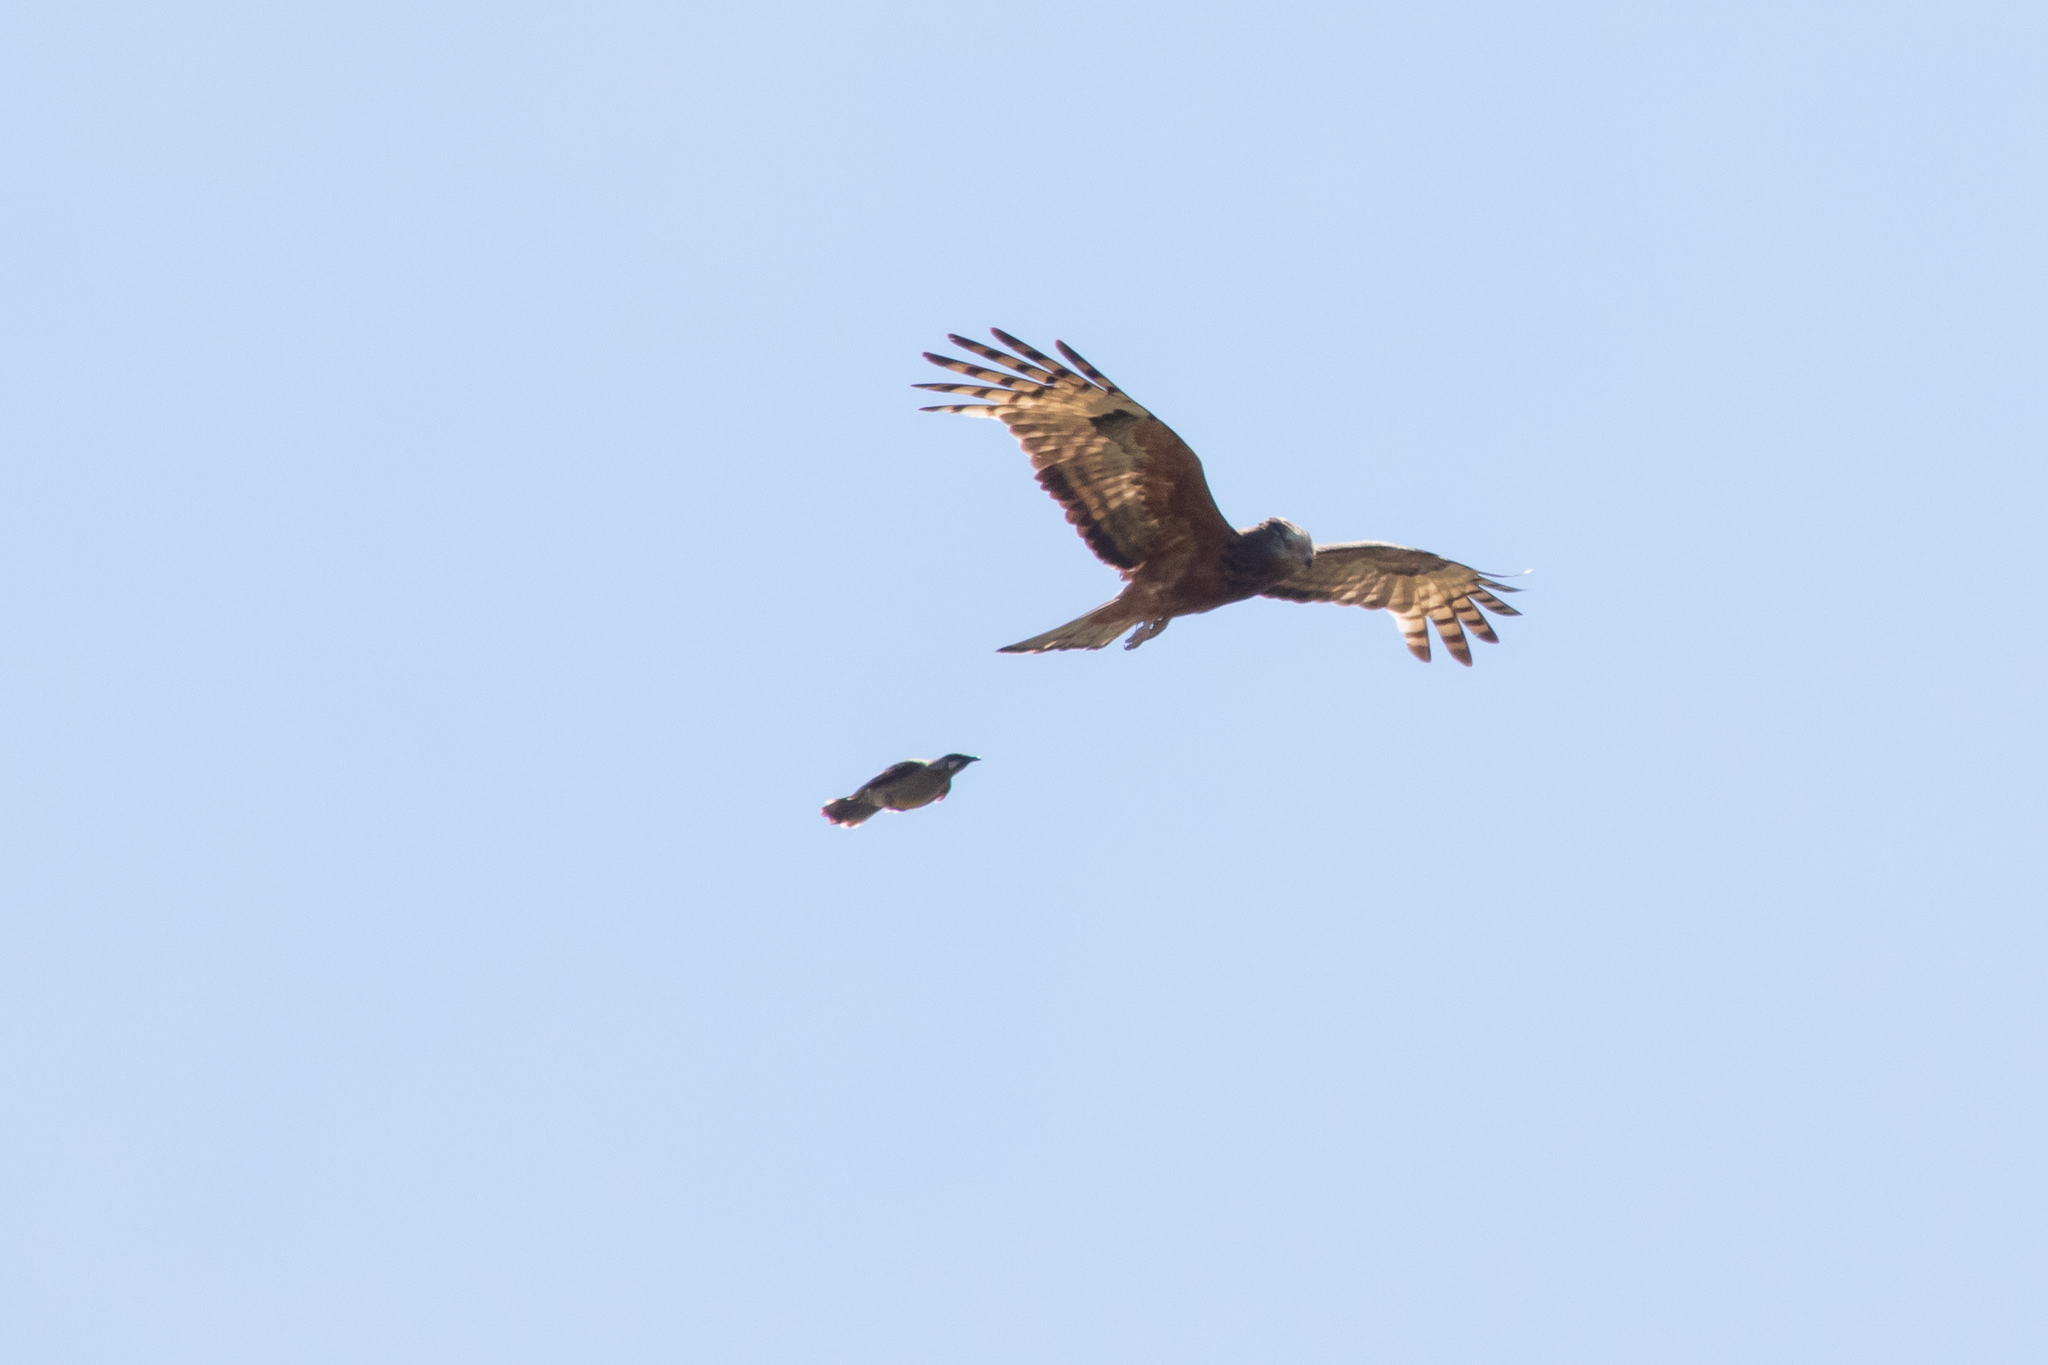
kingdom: Animalia
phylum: Chordata
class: Aves
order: Accipitriformes
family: Accipitridae
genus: Lophoictinia
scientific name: Lophoictinia isura
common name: Square-tailed kite
